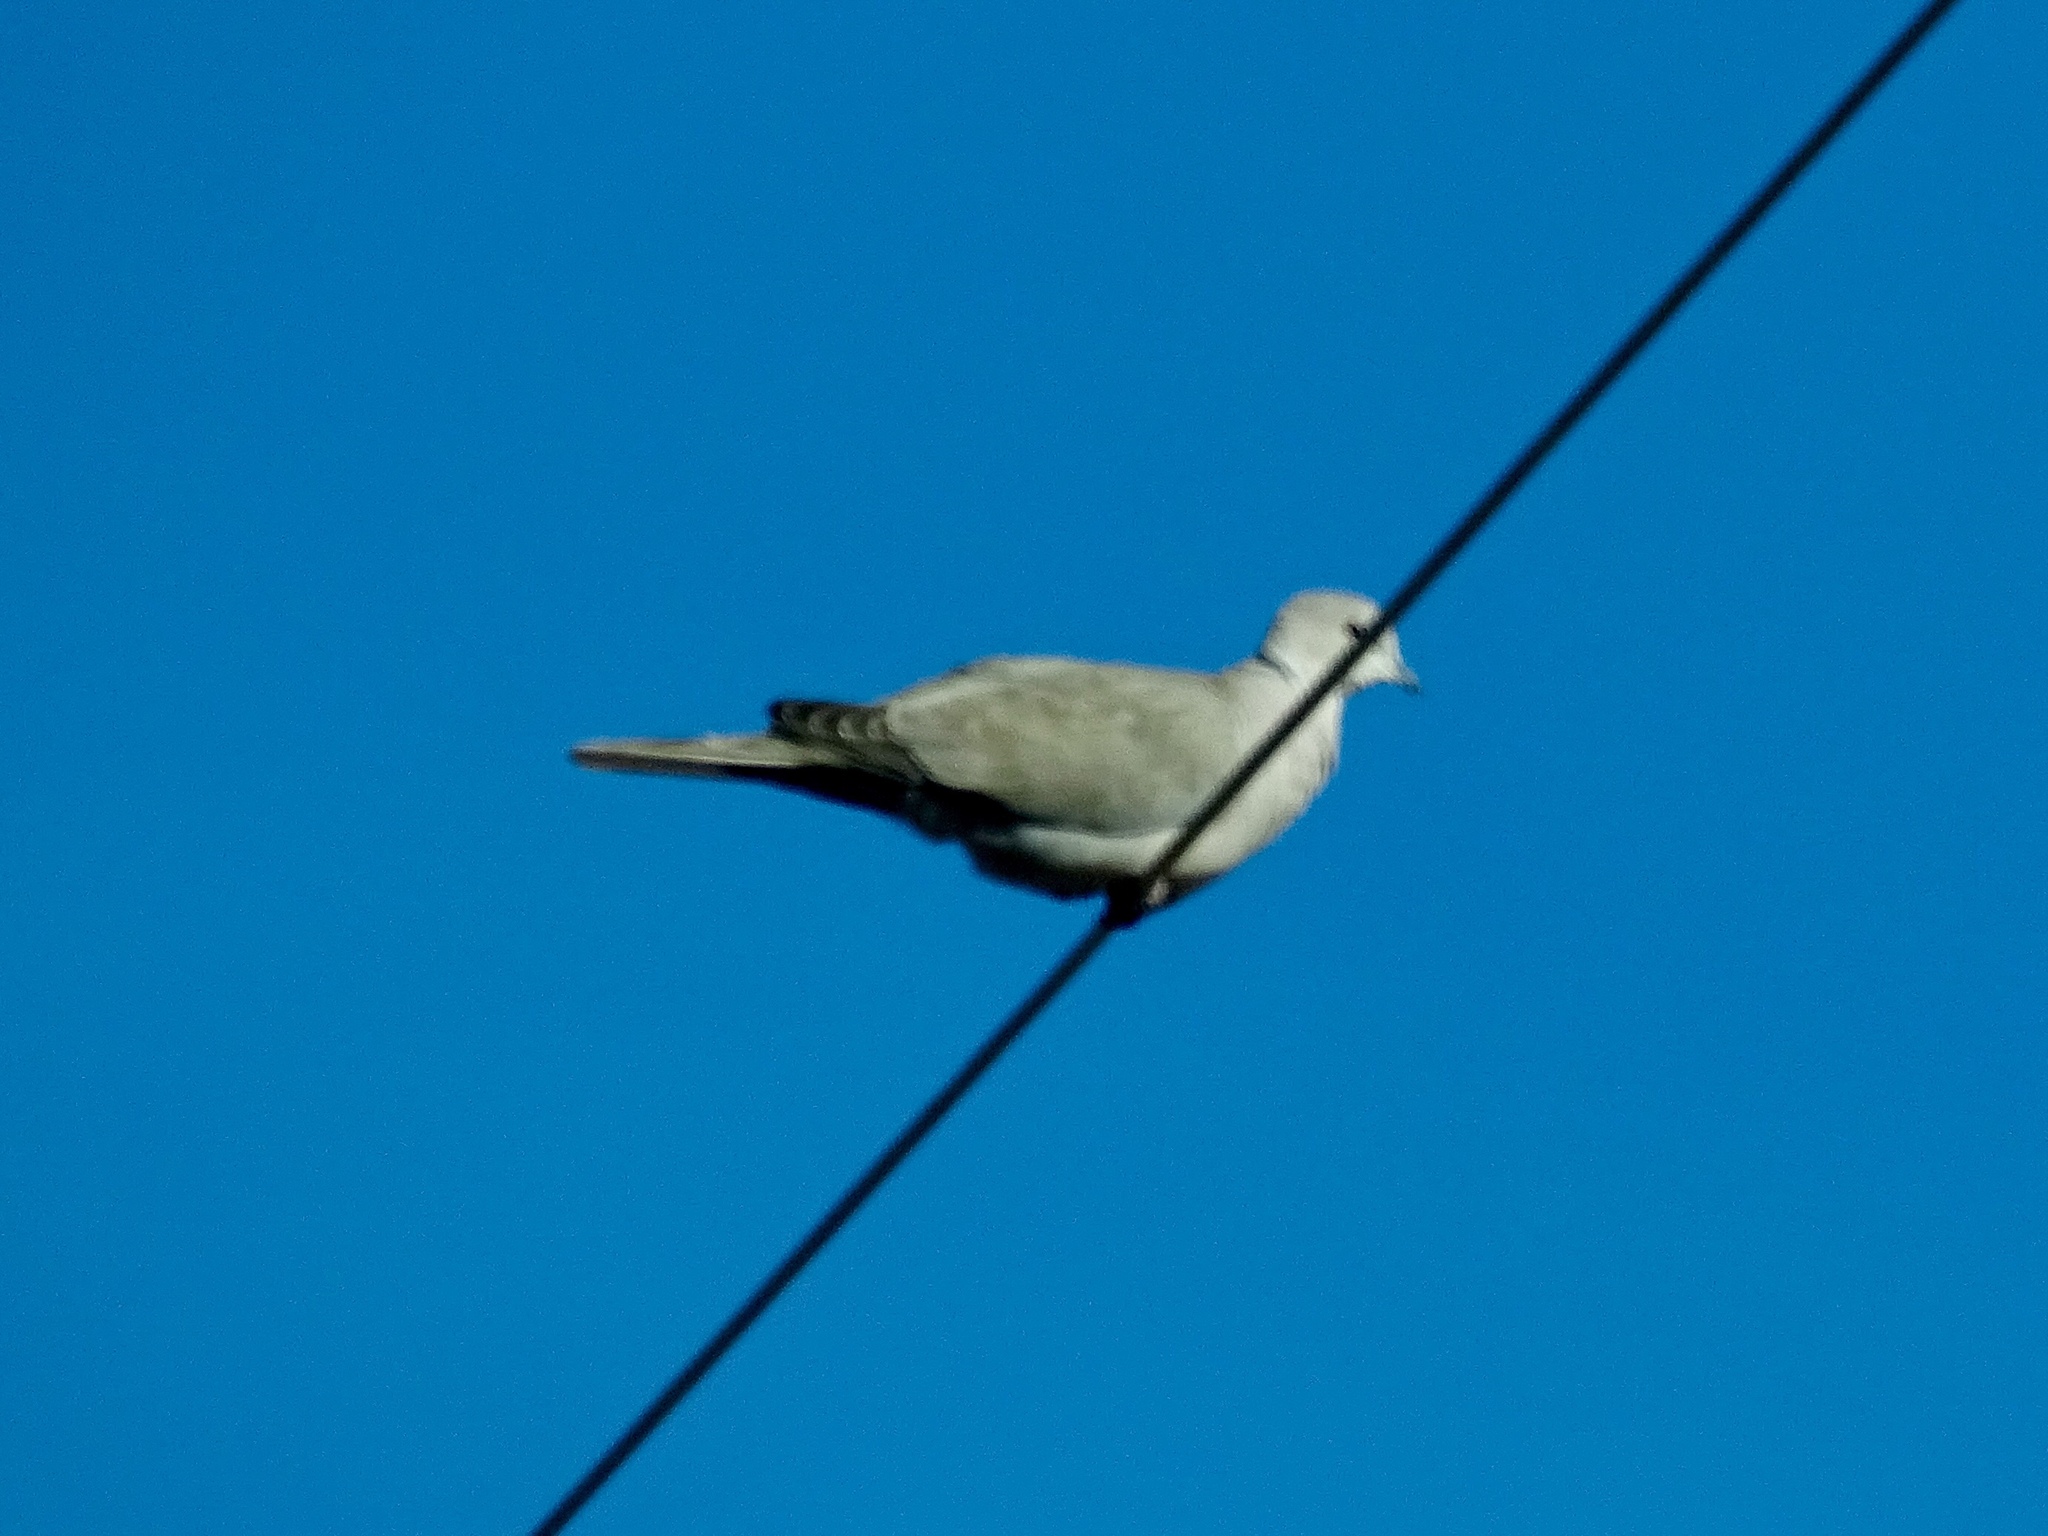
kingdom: Animalia
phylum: Chordata
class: Aves
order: Columbiformes
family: Columbidae
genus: Streptopelia
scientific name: Streptopelia decaocto
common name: Eurasian collared dove
